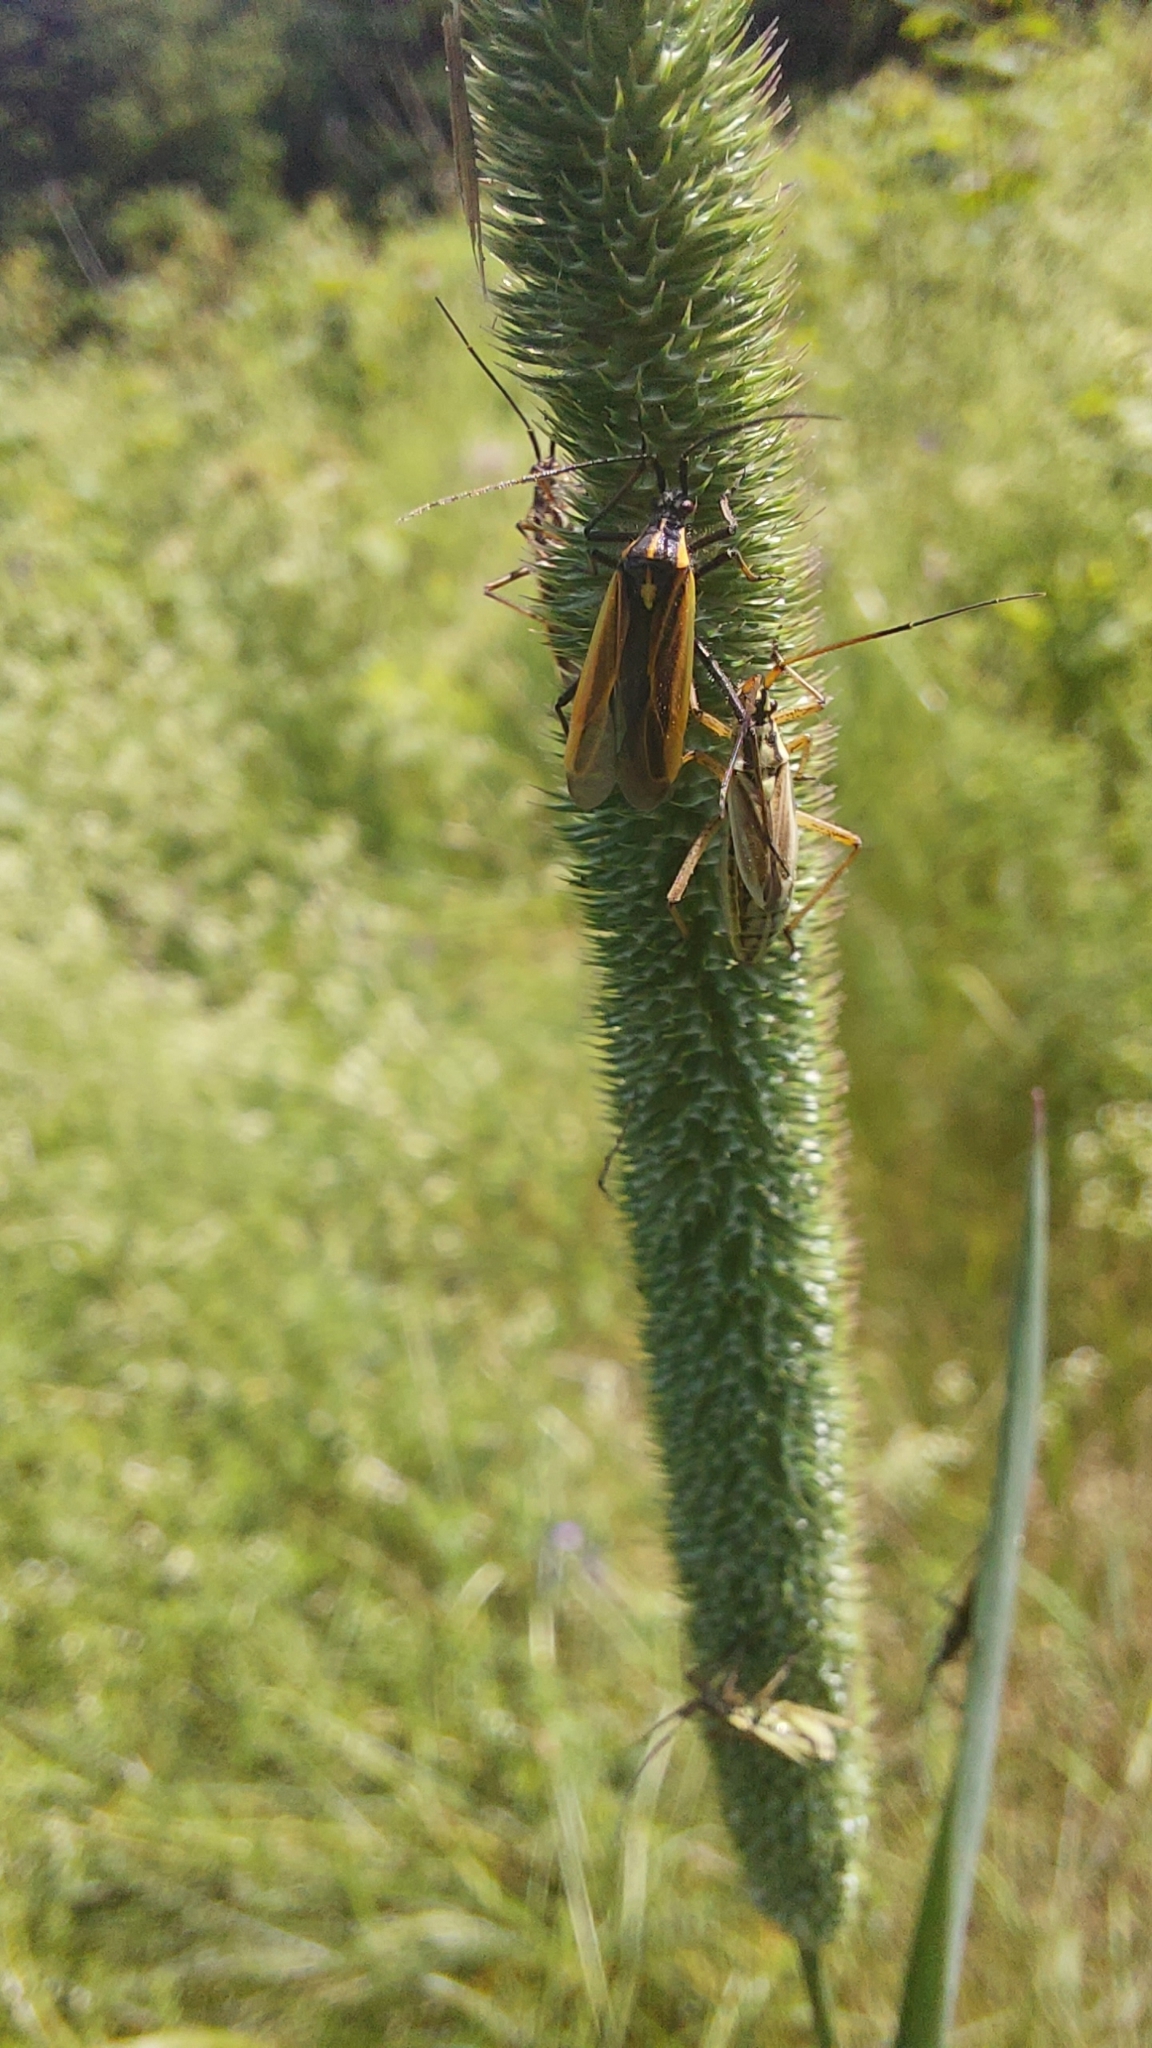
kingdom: Animalia
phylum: Arthropoda
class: Insecta
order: Hemiptera
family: Miridae
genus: Leptopterna
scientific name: Leptopterna dolabrata
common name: Meadow plant bug
